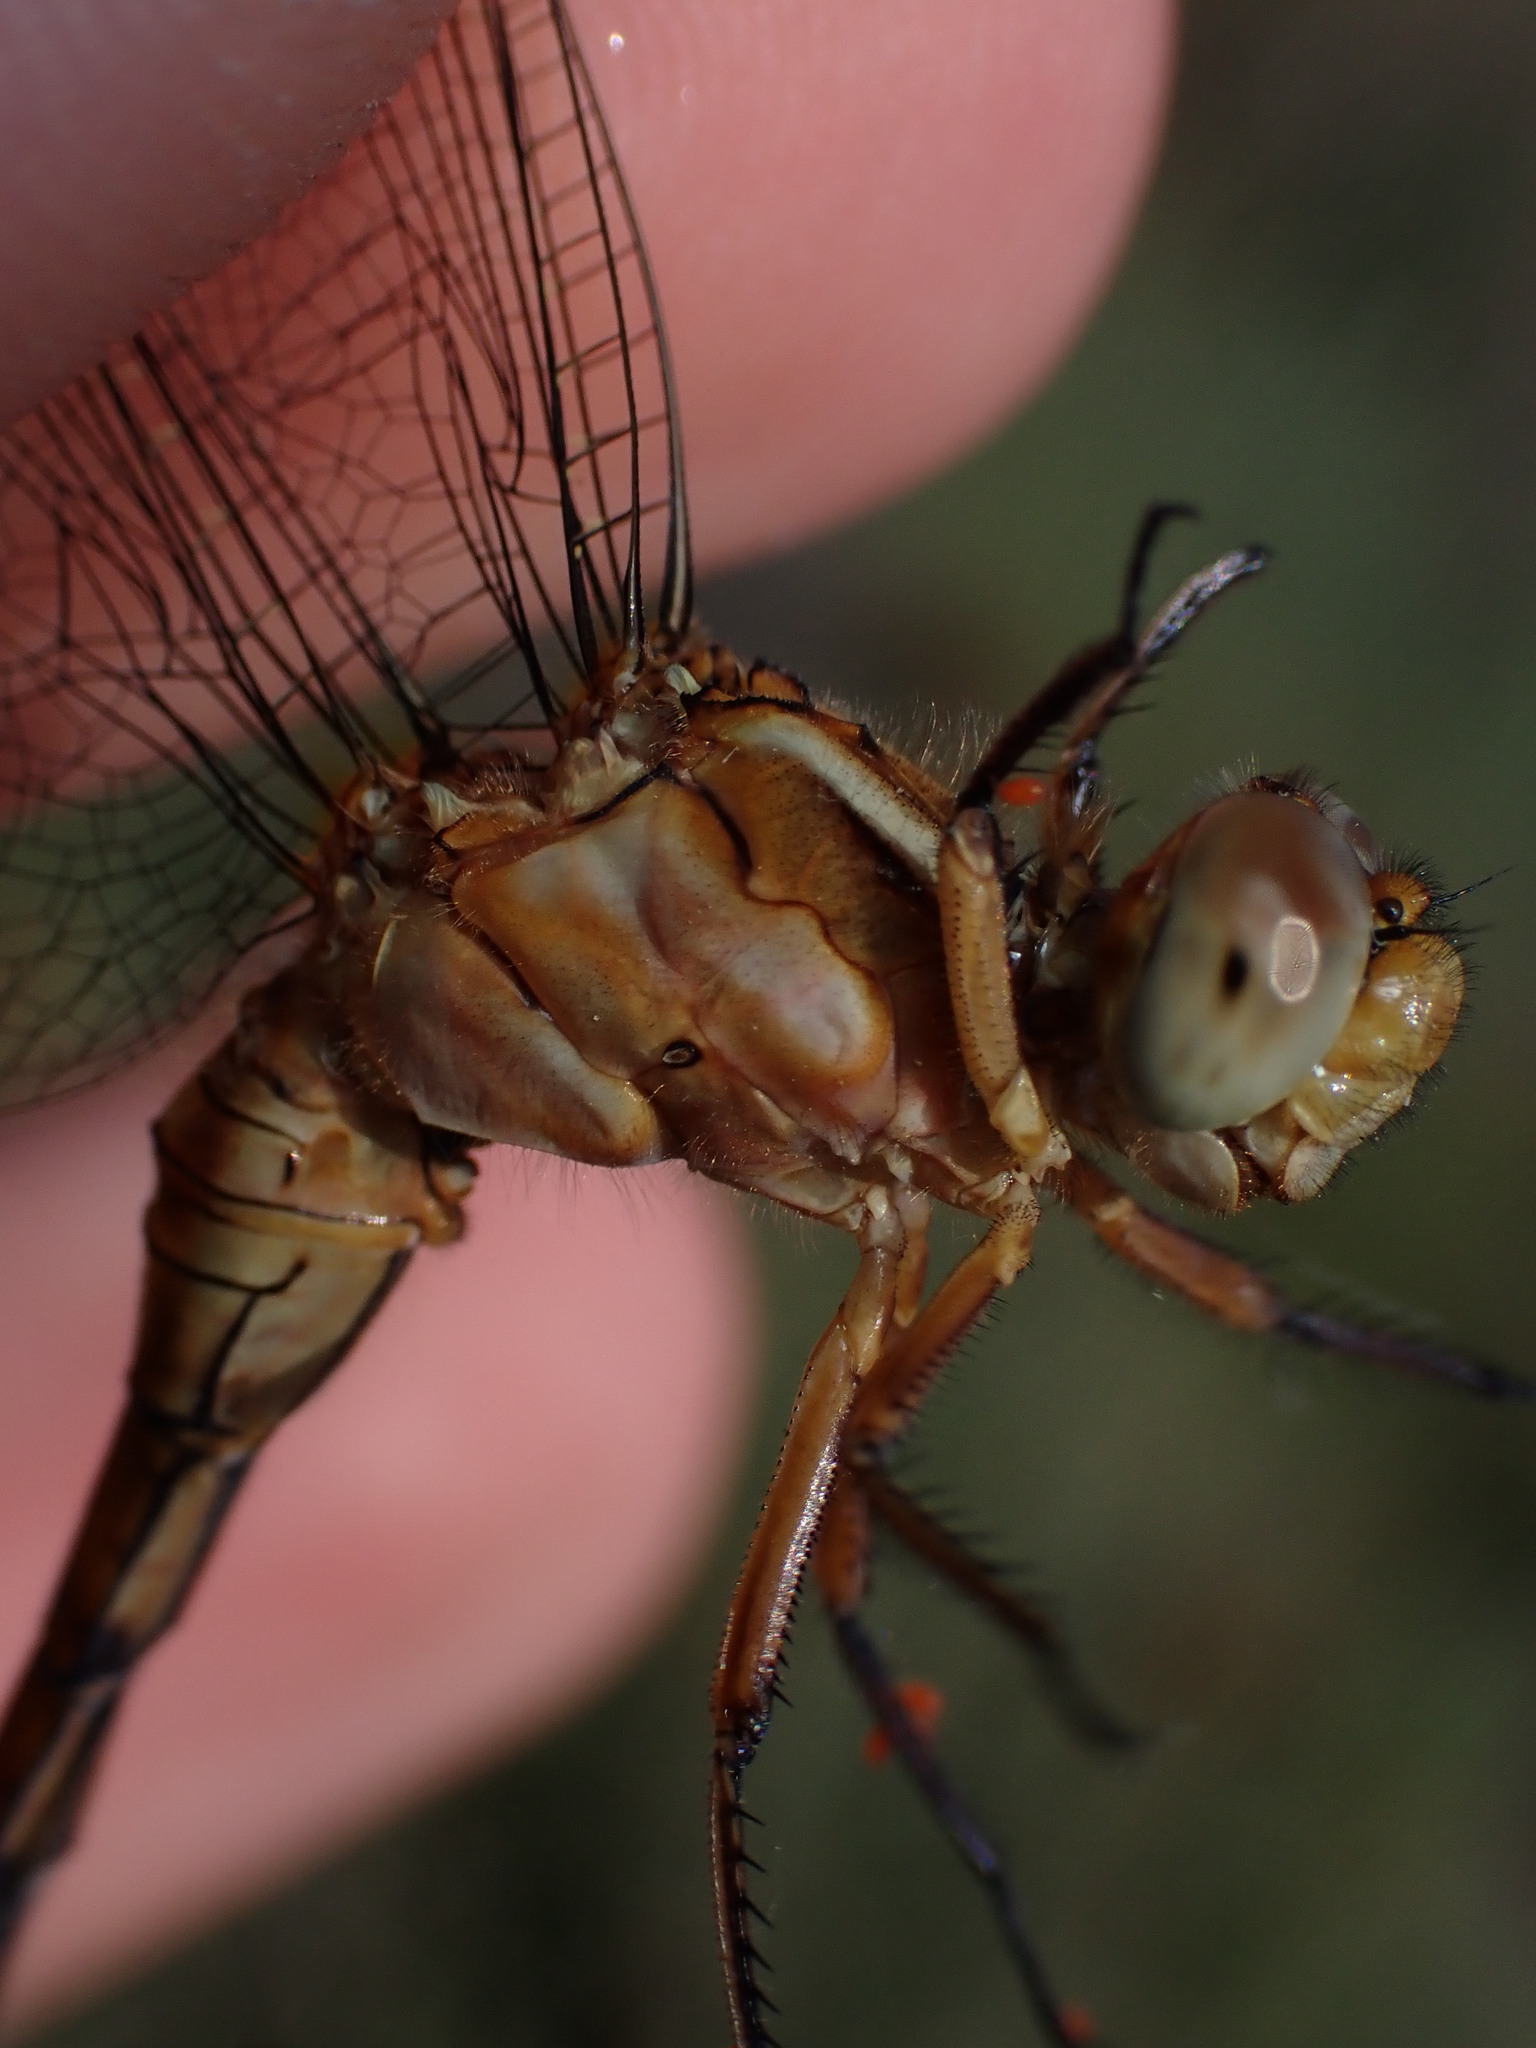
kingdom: Animalia
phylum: Arthropoda
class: Insecta
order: Odonata
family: Libellulidae
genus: Orthetrum
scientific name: Orthetrum coerulescens
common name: Keeled skimmer
